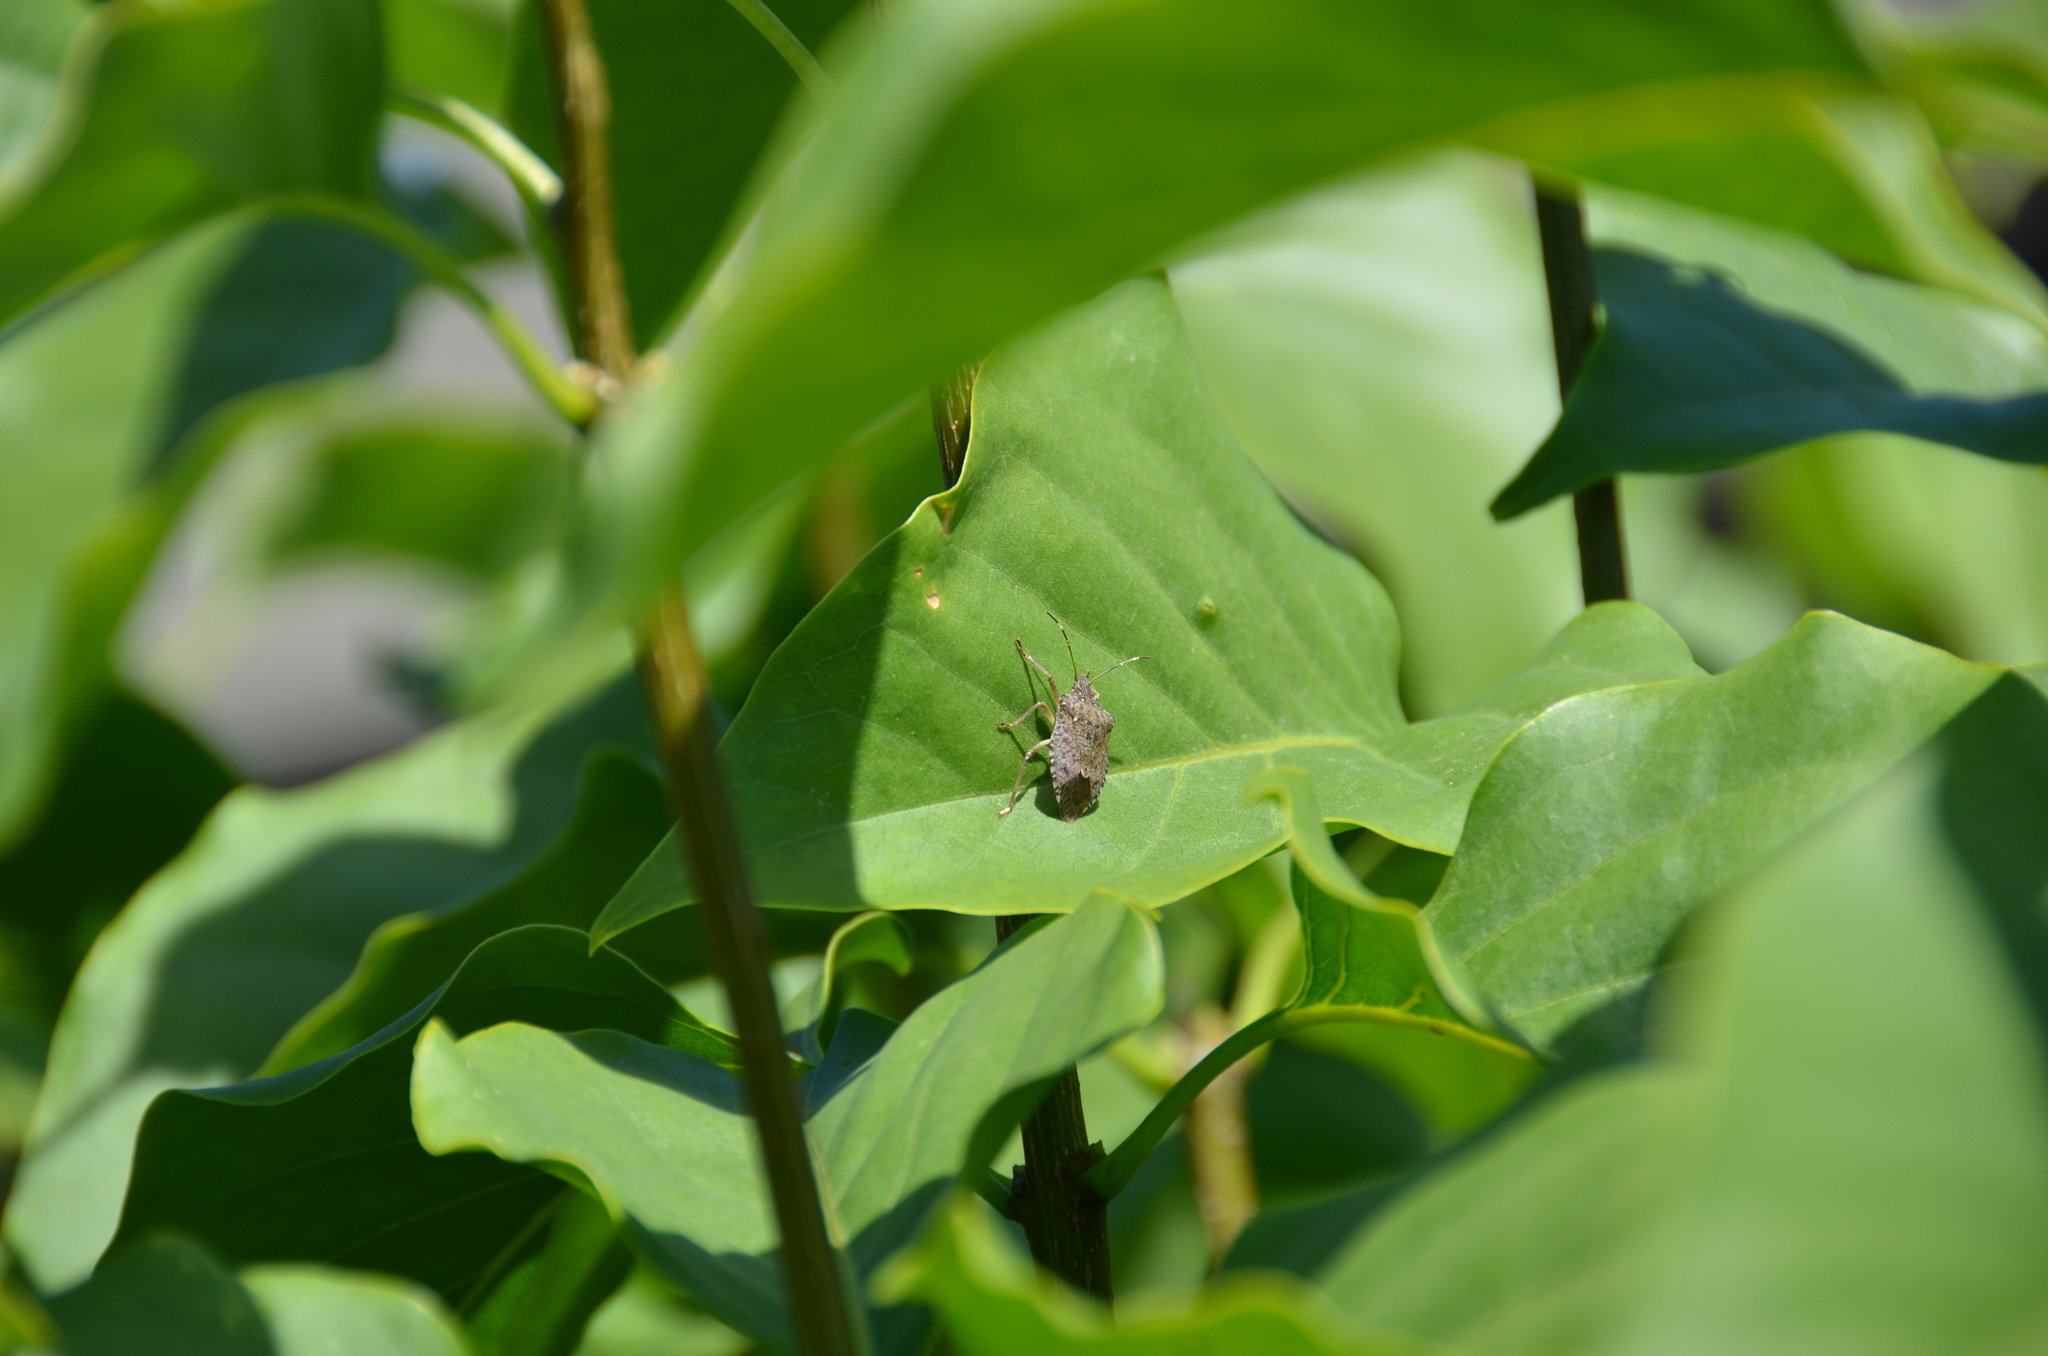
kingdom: Animalia
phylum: Arthropoda
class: Insecta
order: Hemiptera
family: Pentatomidae
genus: Halyomorpha
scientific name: Halyomorpha halys
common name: Brown marmorated stink bug
